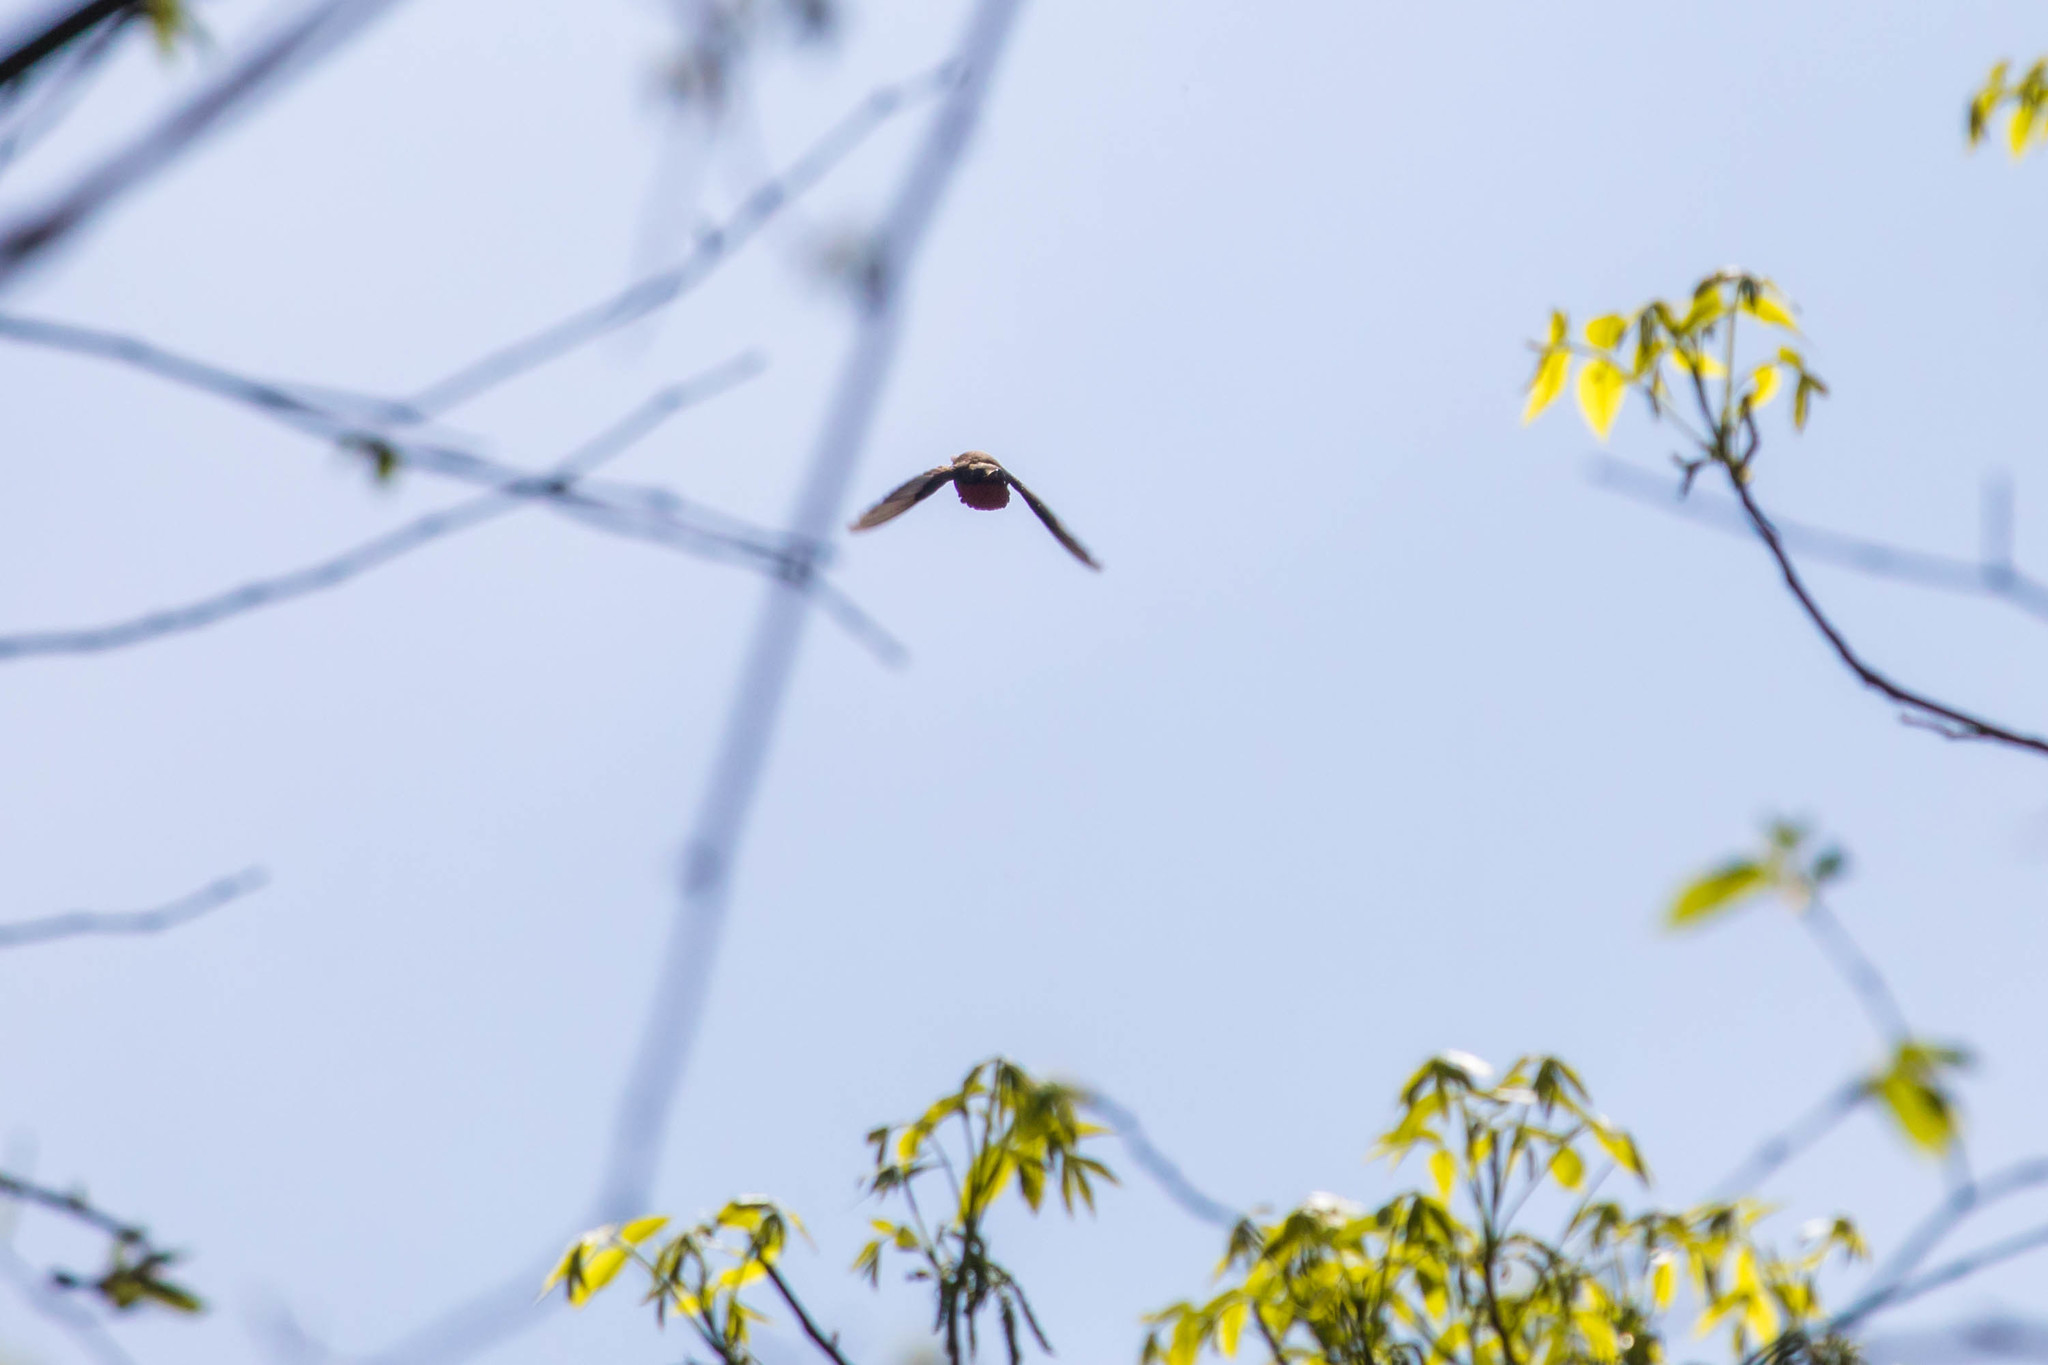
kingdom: Animalia
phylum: Chordata
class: Aves
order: Apodiformes
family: Trochilidae
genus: Archilochus
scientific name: Archilochus colubris
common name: Ruby-throated hummingbird
